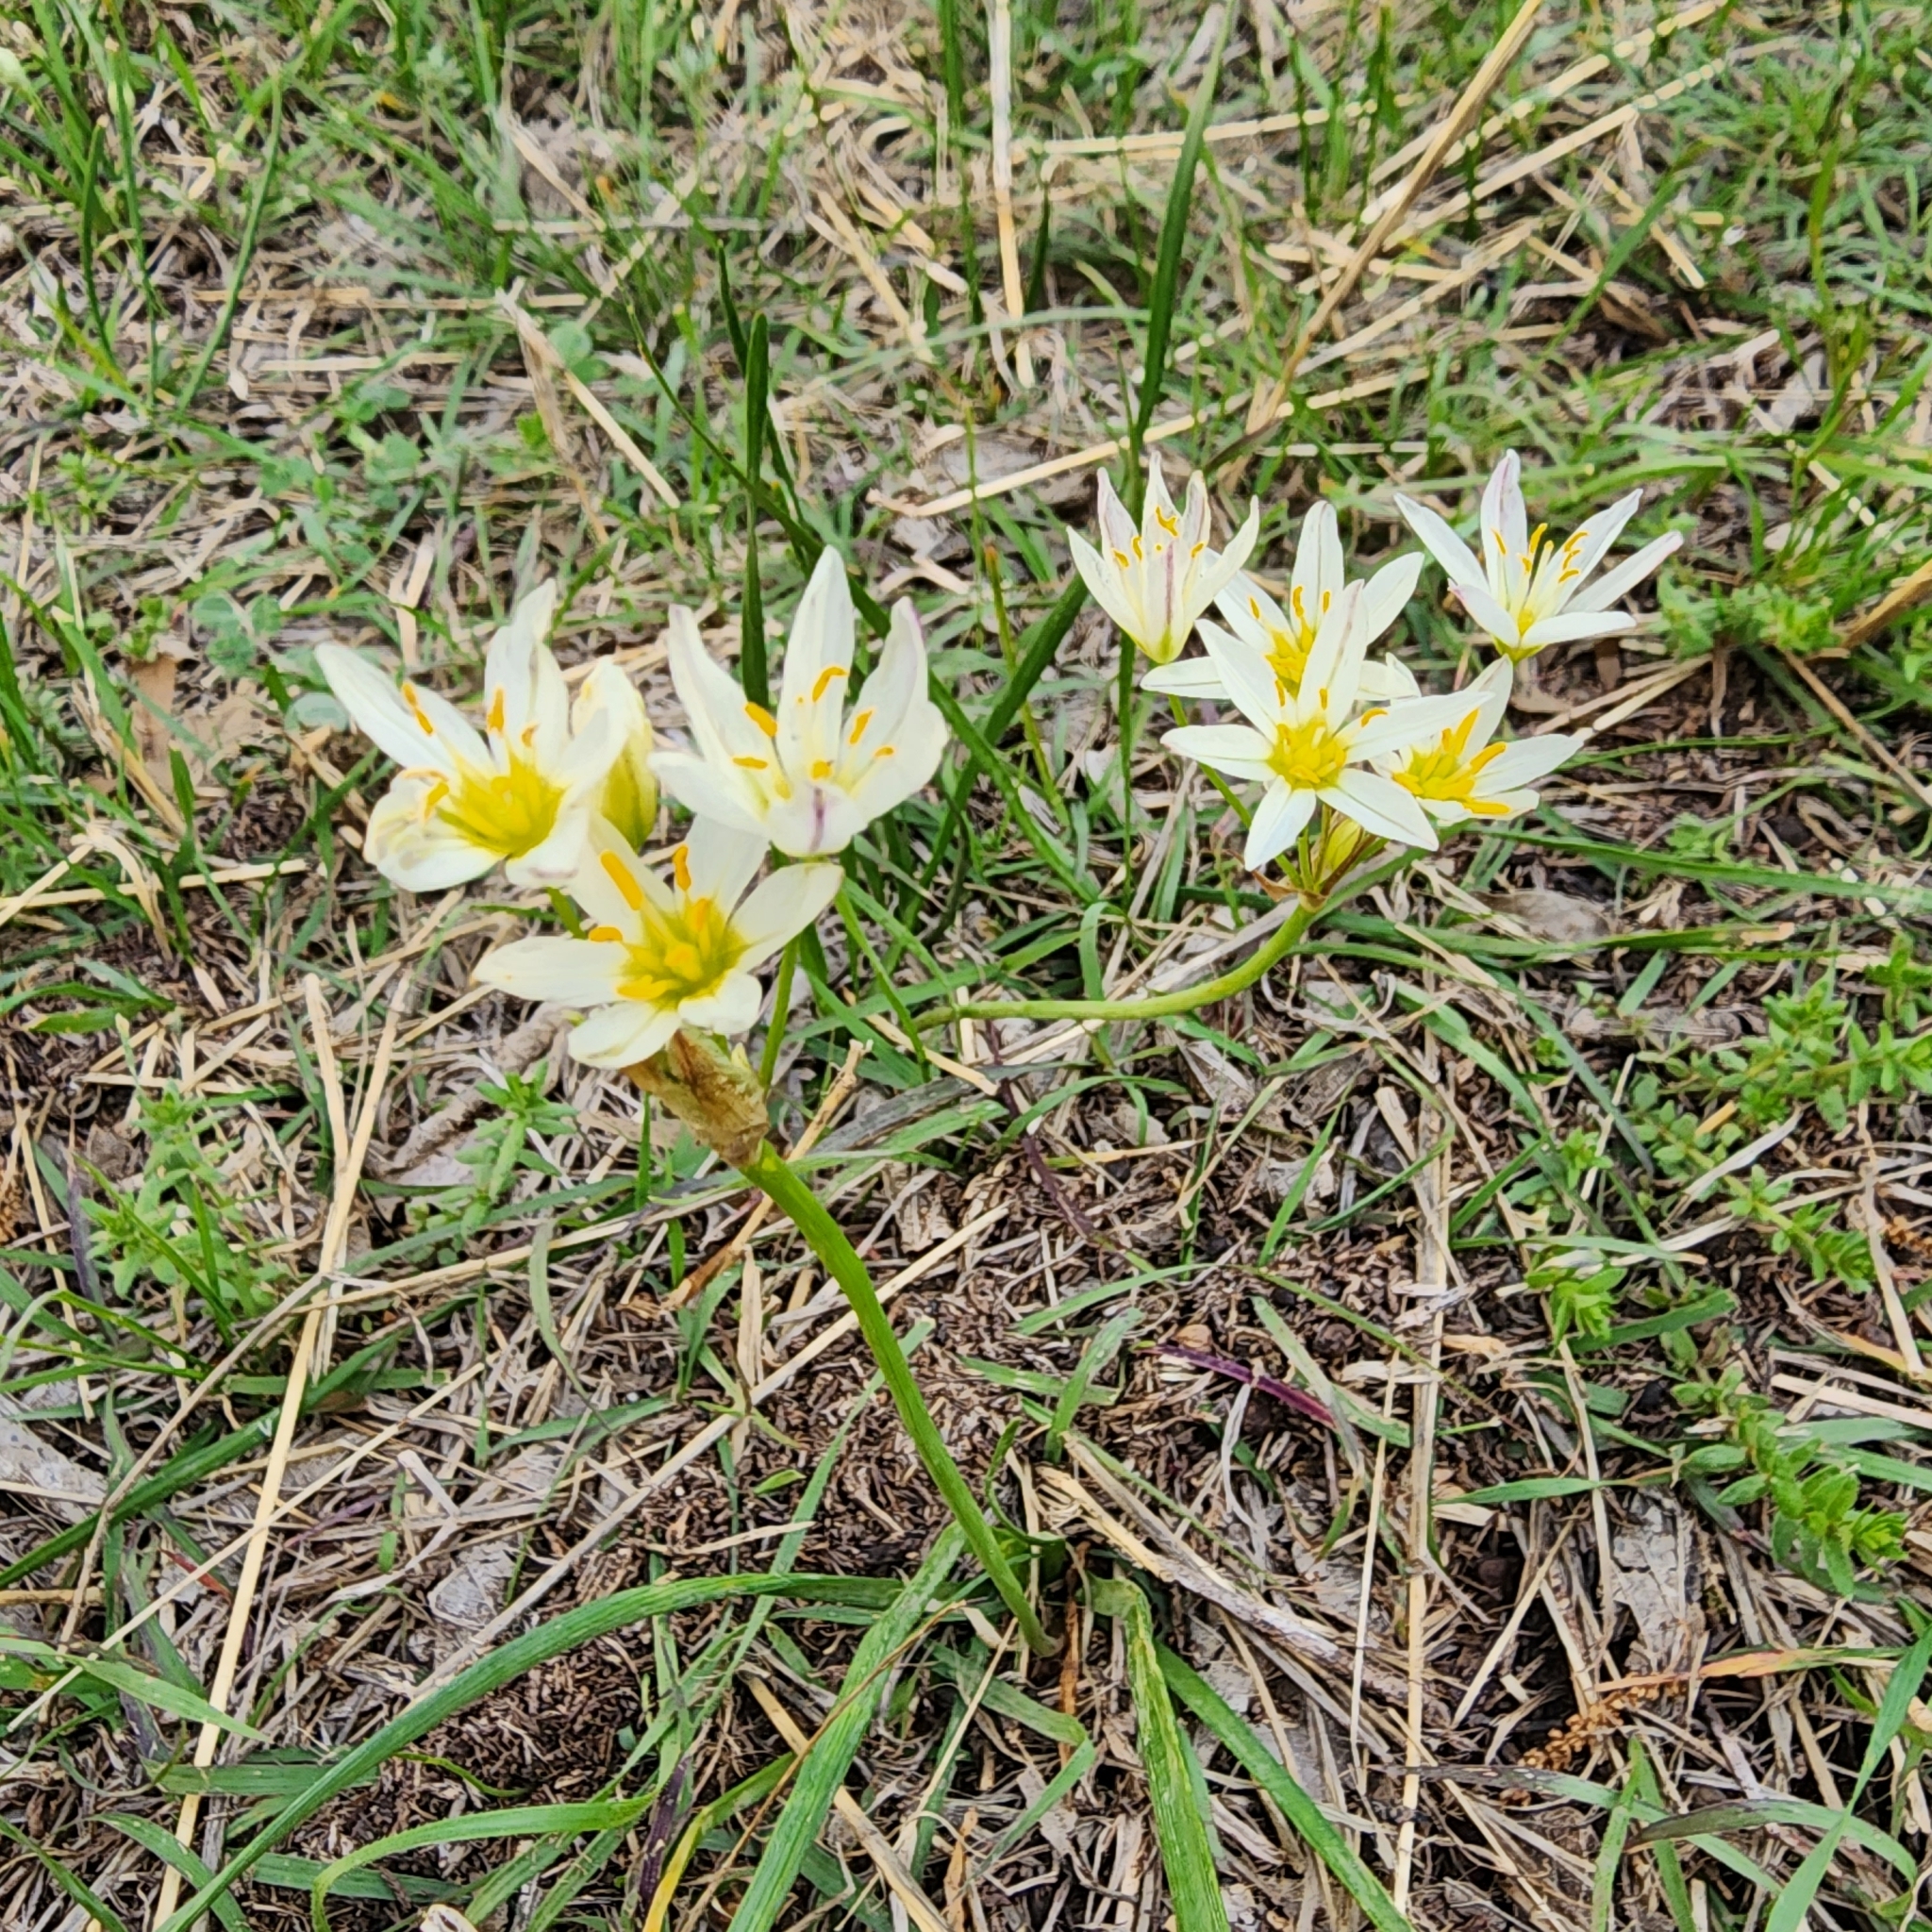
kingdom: Plantae
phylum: Tracheophyta
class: Liliopsida
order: Asparagales
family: Amaryllidaceae
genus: Nothoscordum
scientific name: Nothoscordum bivalve
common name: Crow-poison
